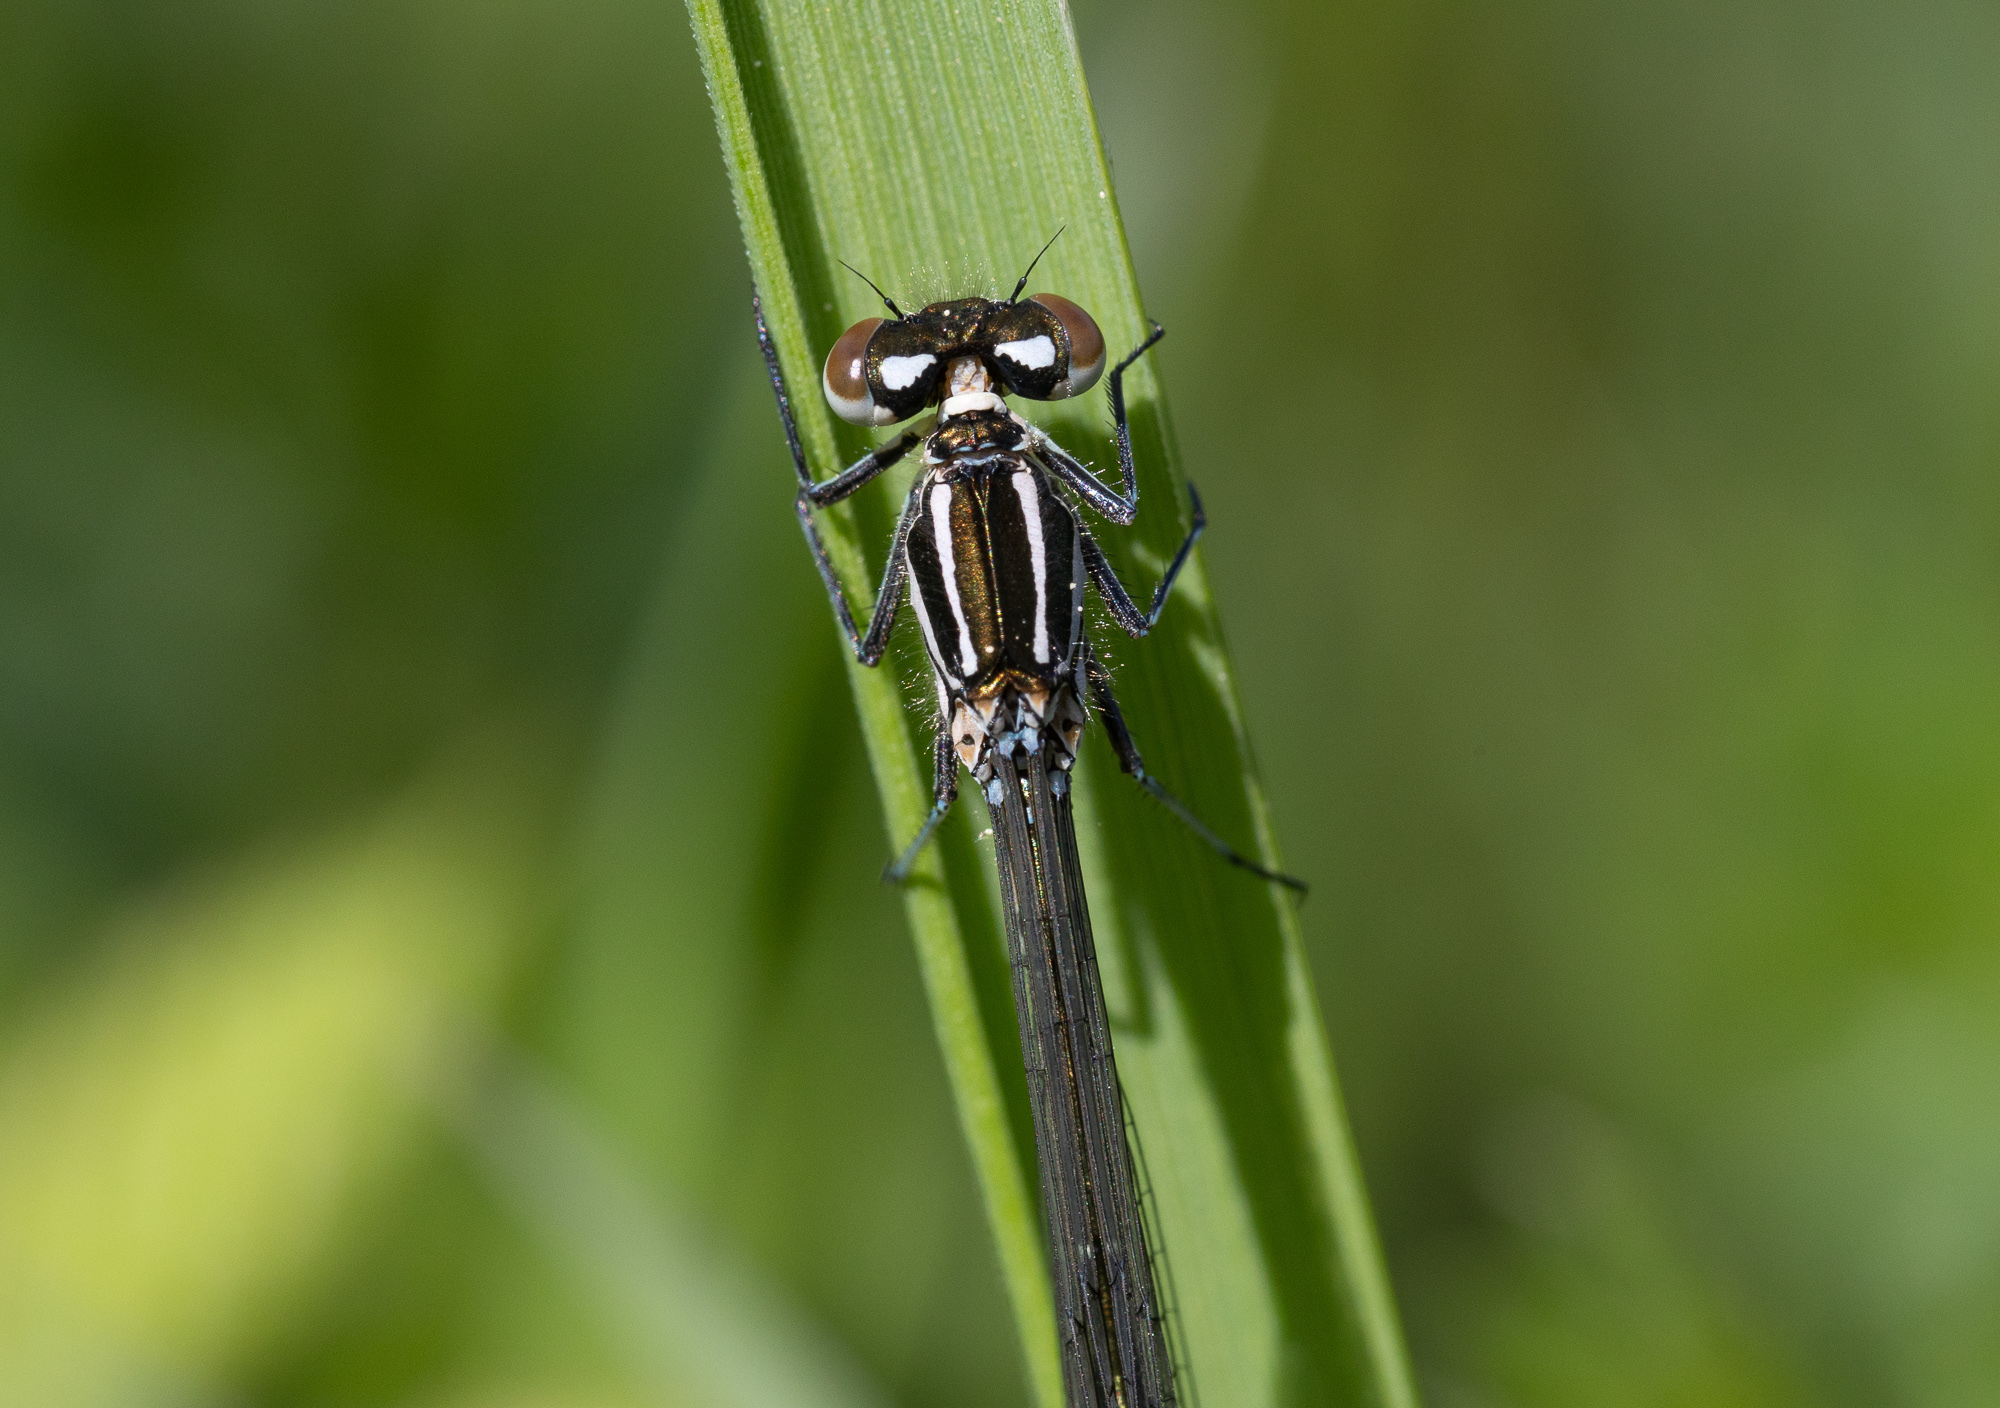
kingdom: Animalia
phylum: Arthropoda
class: Insecta
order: Odonata
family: Coenagrionidae
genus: Coenagrion
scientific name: Coenagrion puella
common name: Azure damselfly
